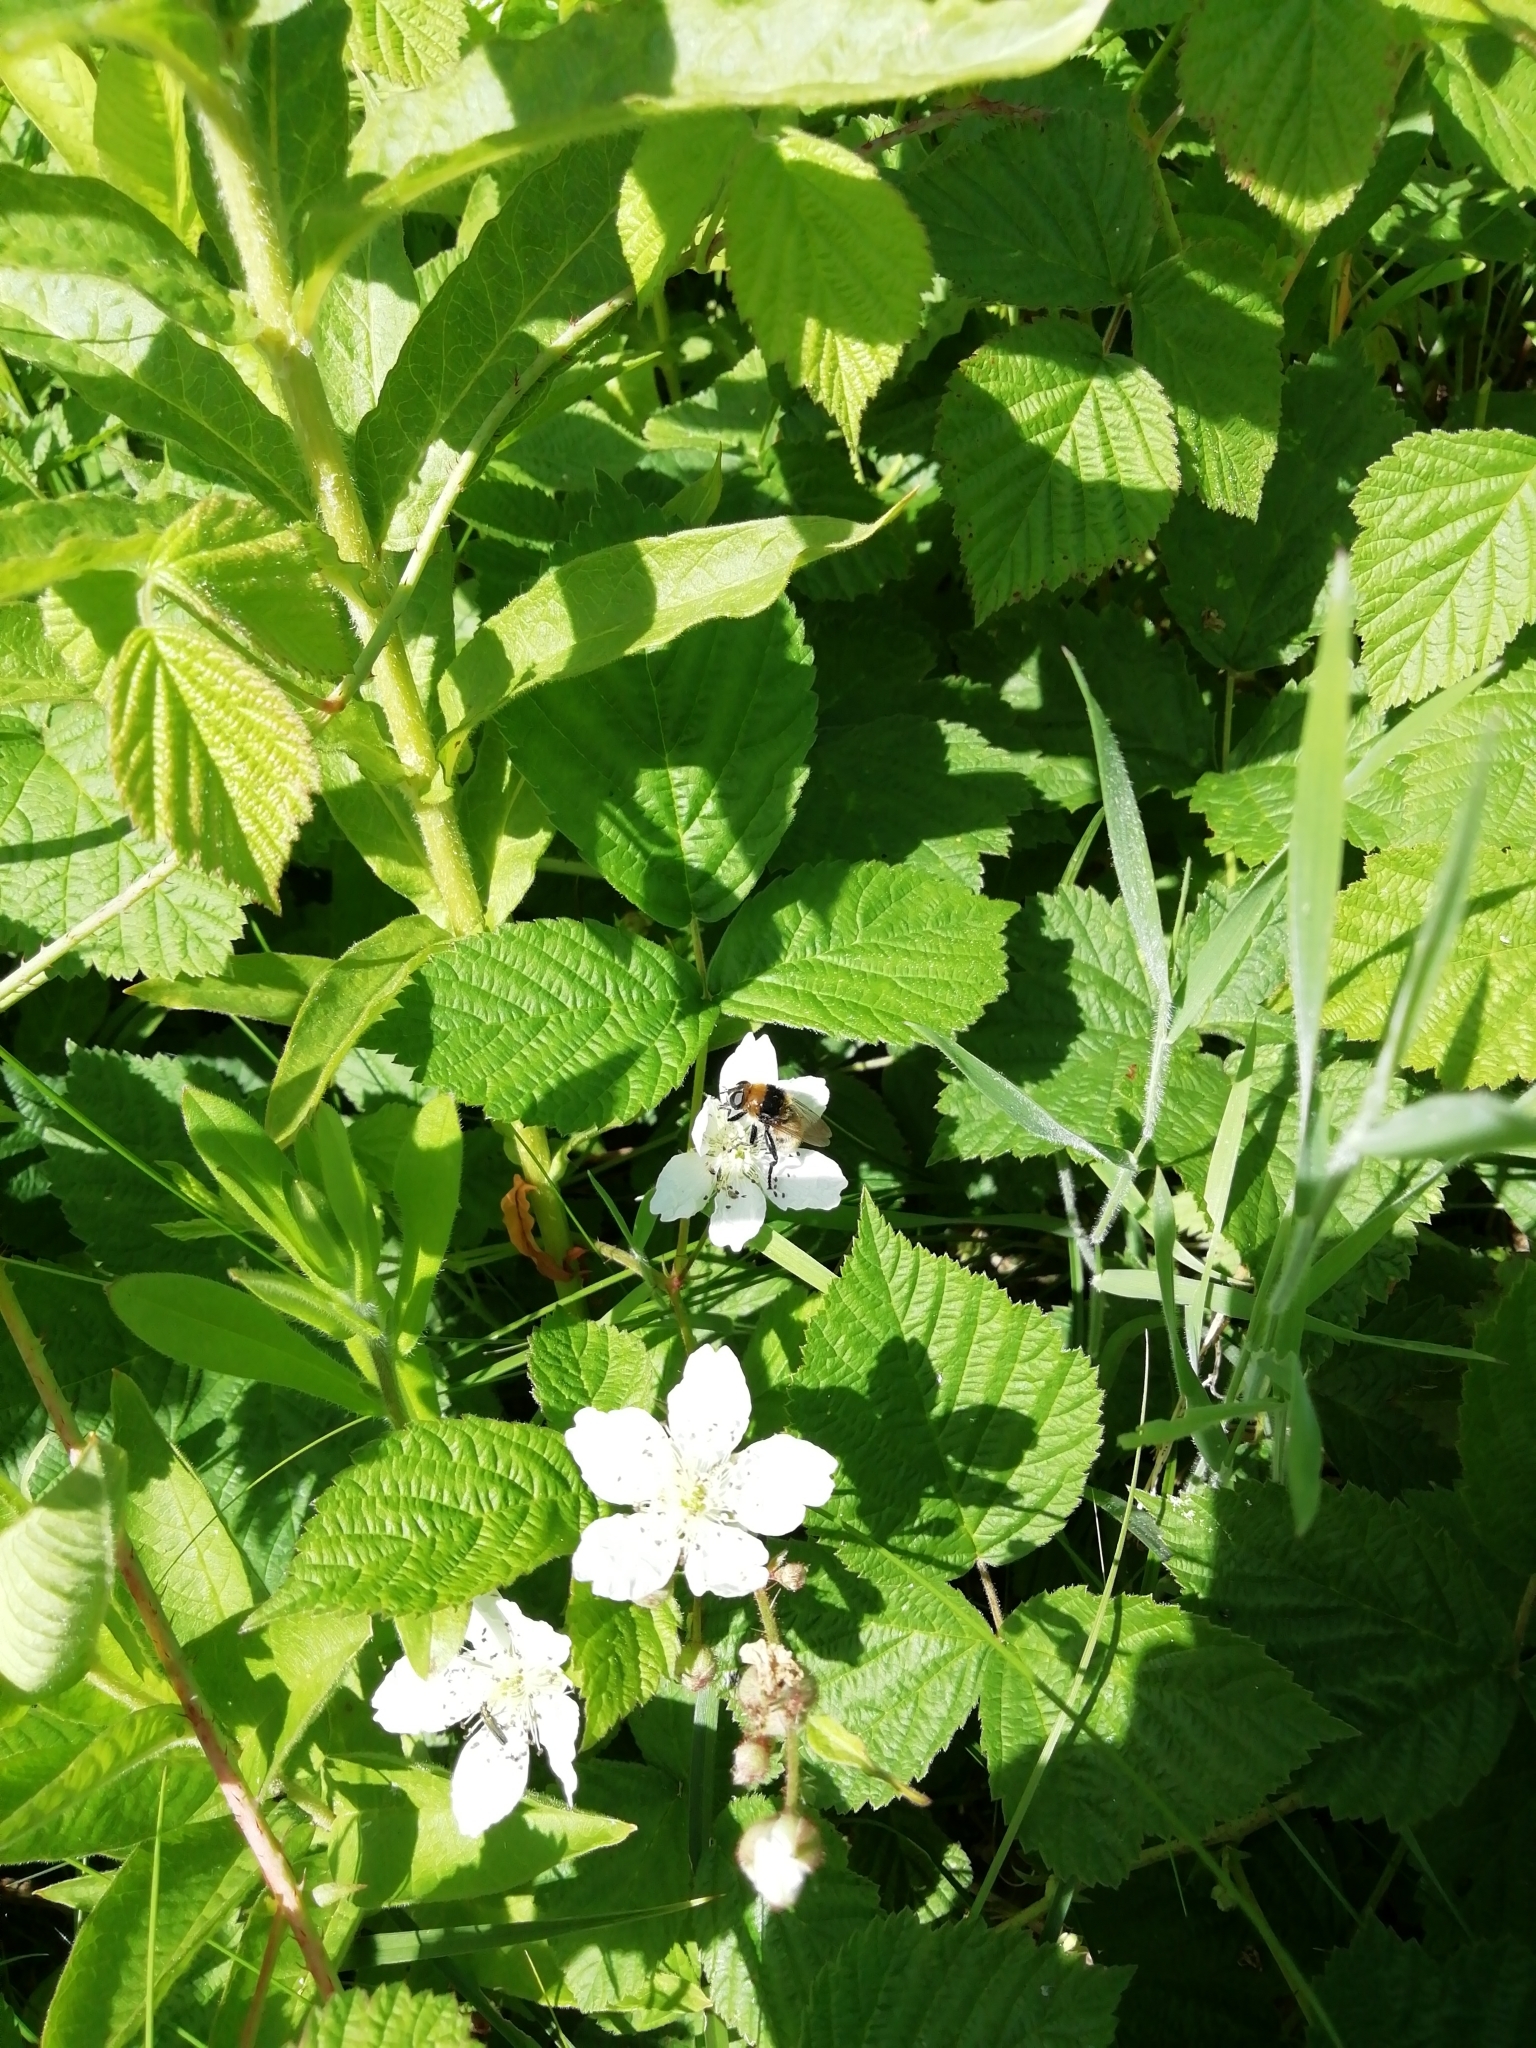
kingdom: Animalia
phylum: Arthropoda
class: Insecta
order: Diptera
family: Syrphidae
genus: Merodon
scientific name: Merodon equestris
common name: Greater bulb-fly
